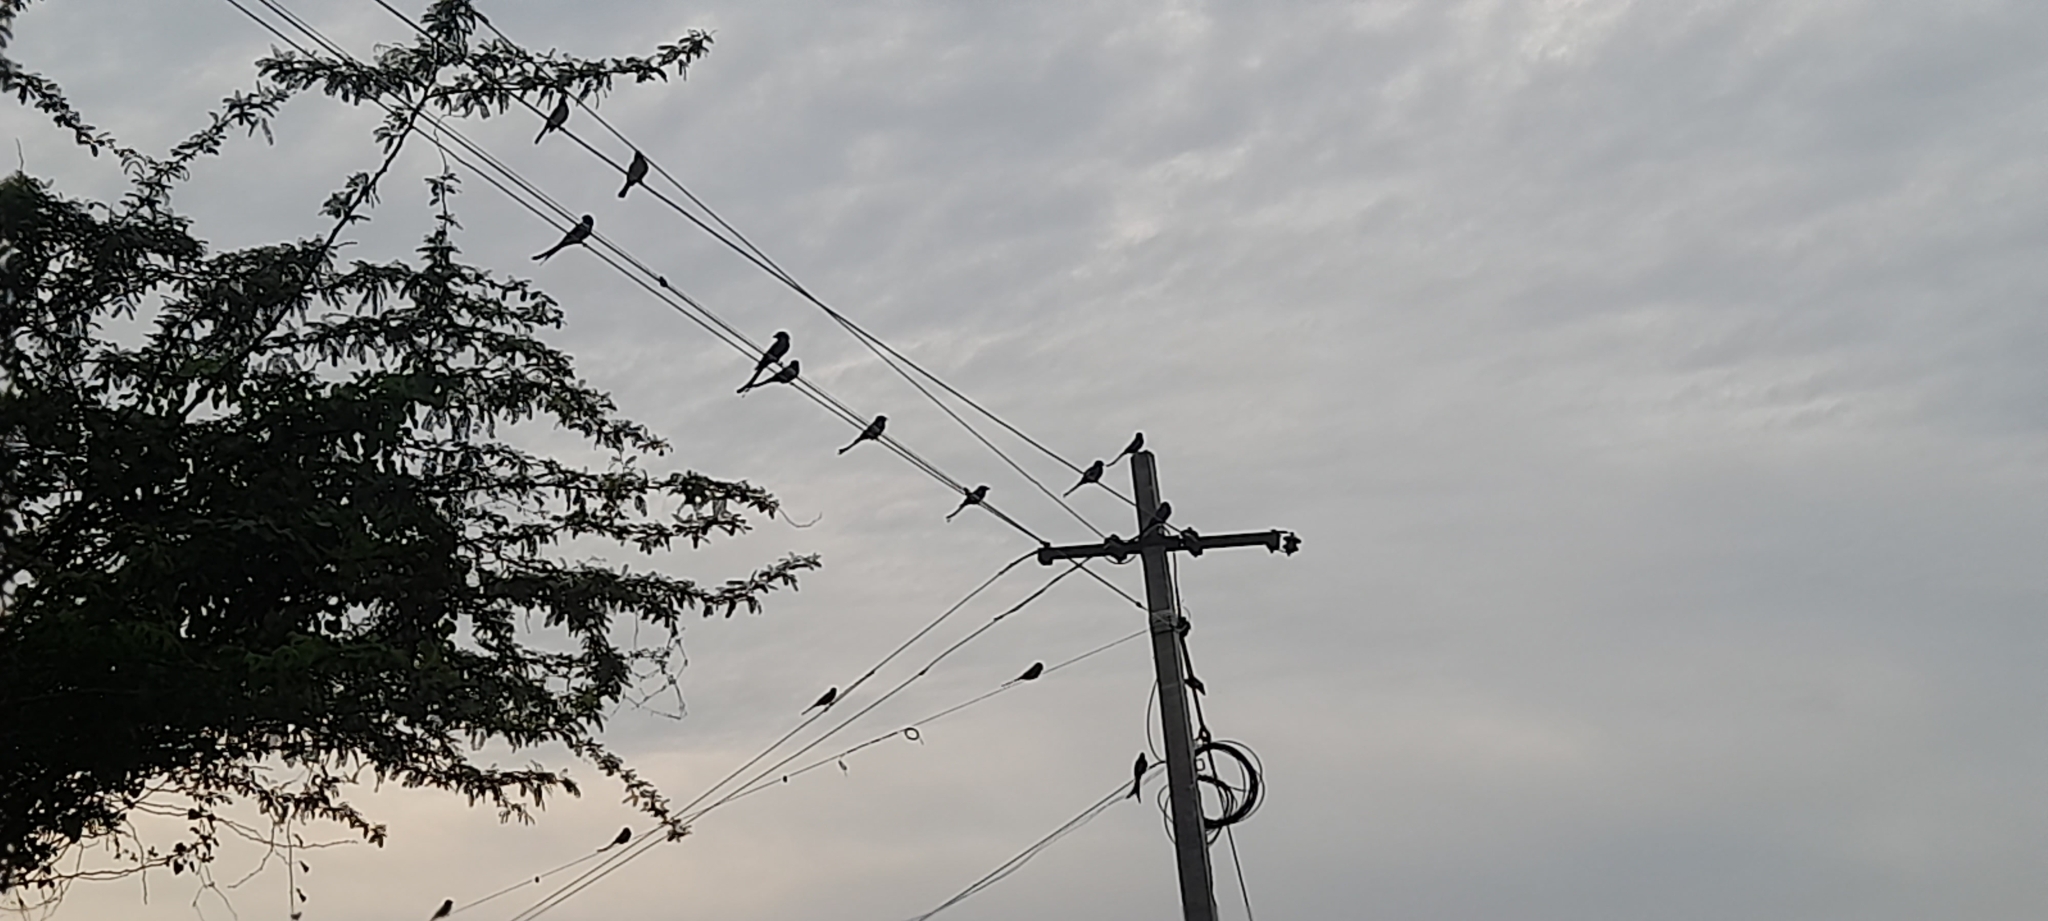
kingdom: Animalia
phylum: Chordata
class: Aves
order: Passeriformes
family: Dicruridae
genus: Dicrurus
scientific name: Dicrurus macrocercus
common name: Black drongo
